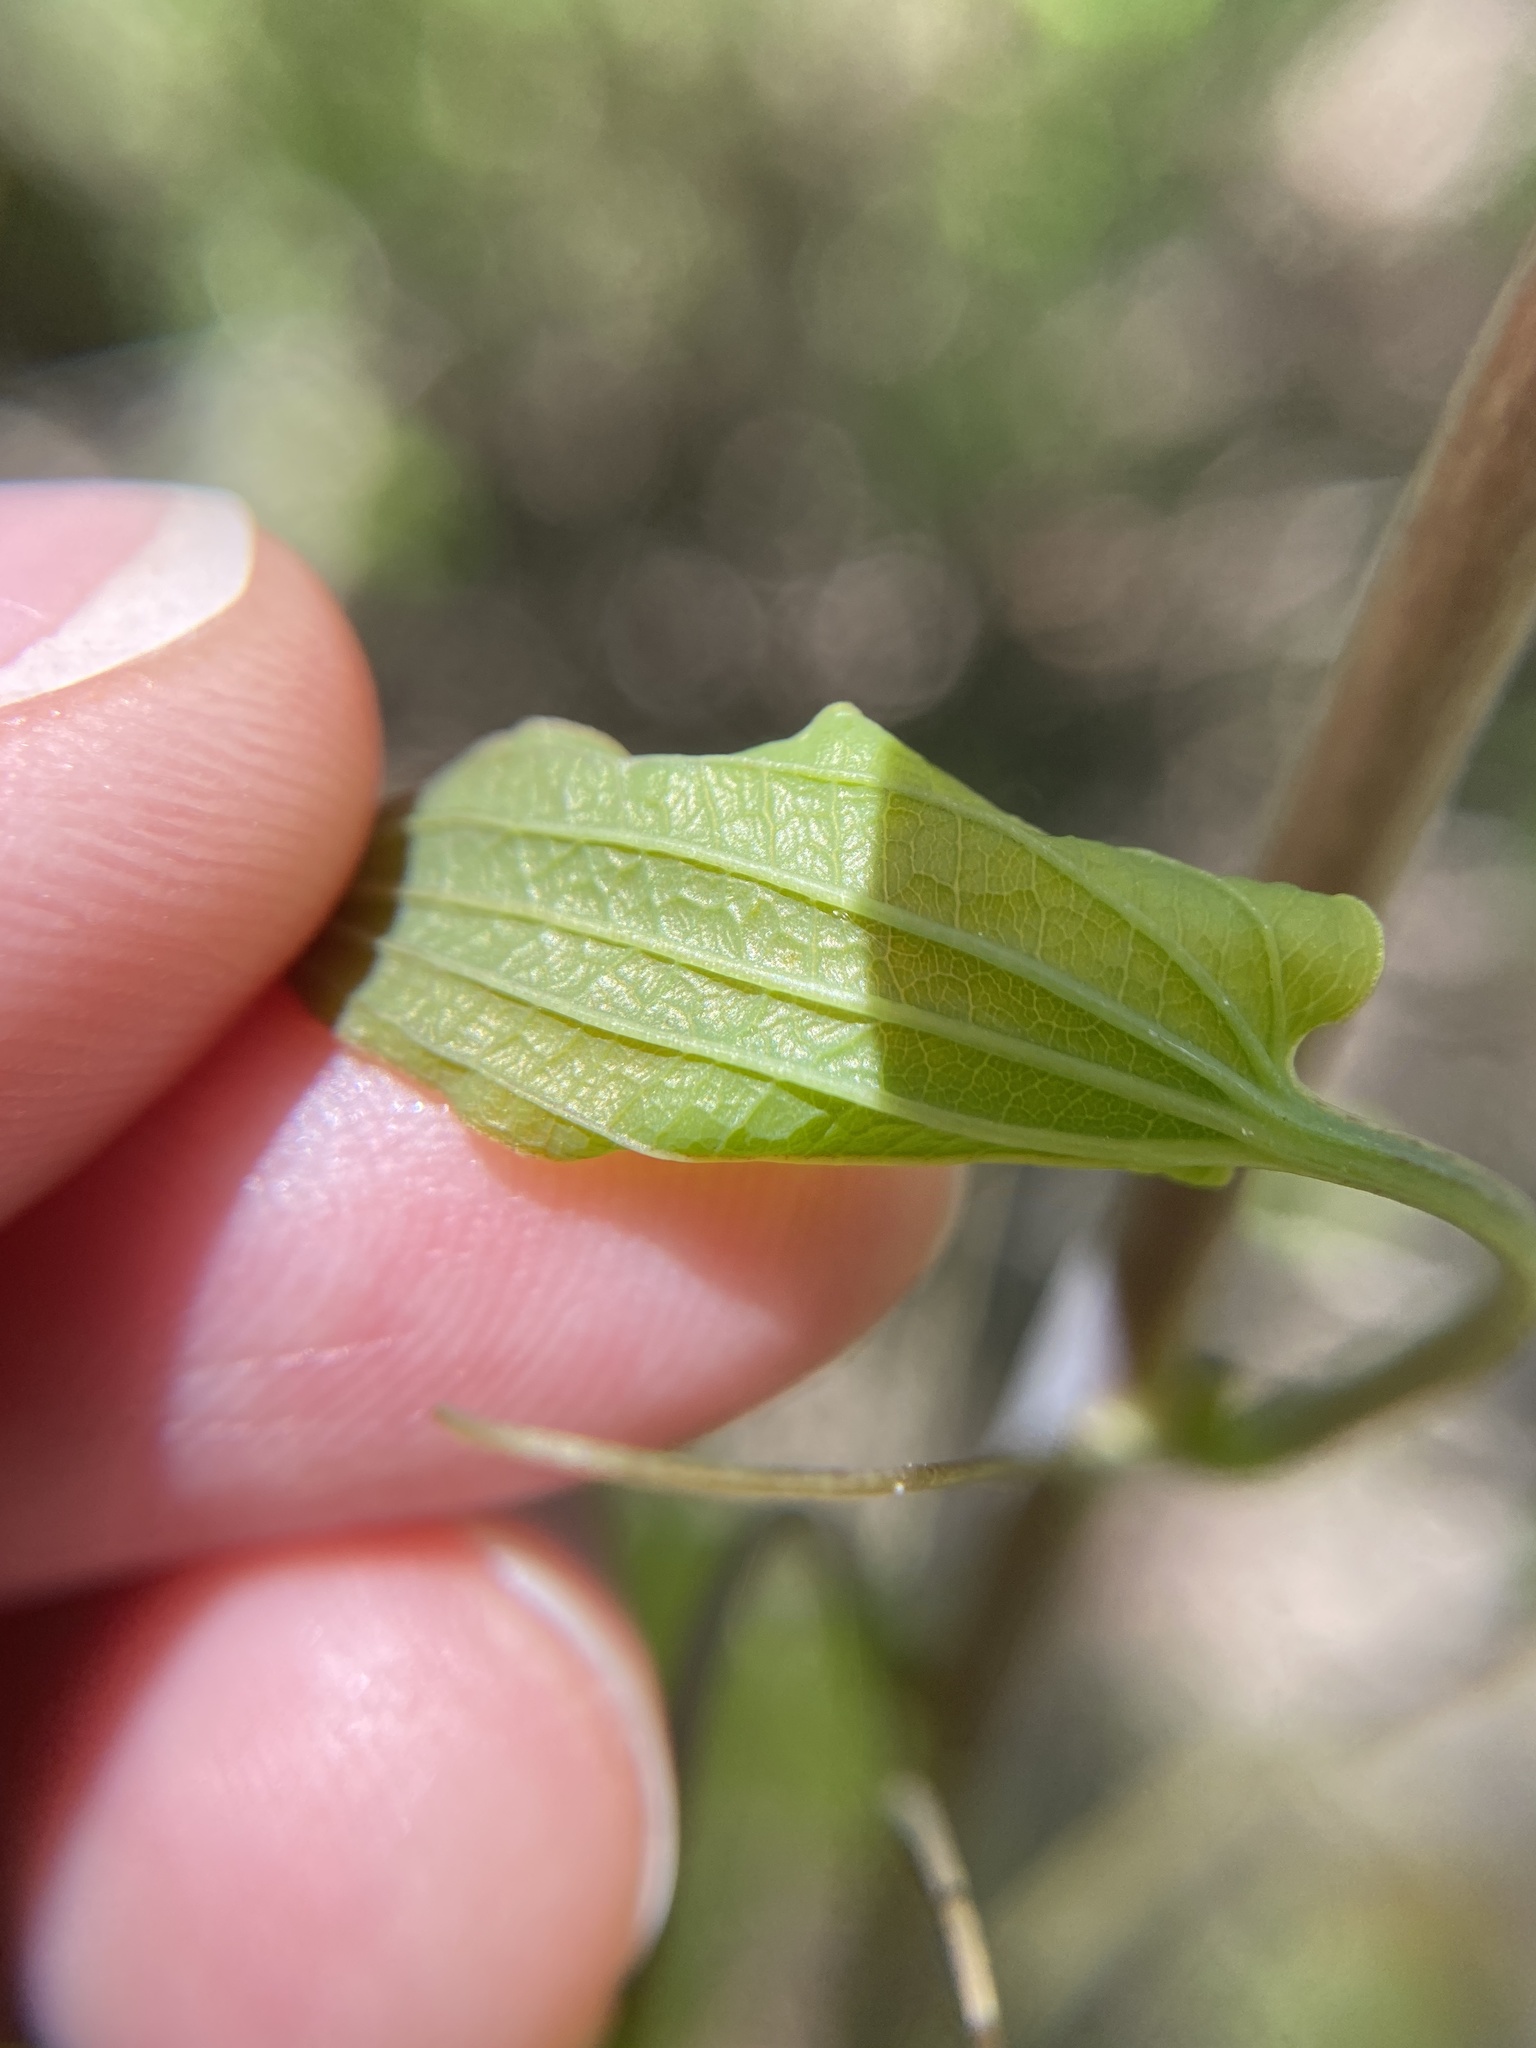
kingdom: Plantae
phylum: Tracheophyta
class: Liliopsida
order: Liliales
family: Smilacaceae
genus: Smilax
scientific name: Smilax herbacea
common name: Jacob's-ladder
